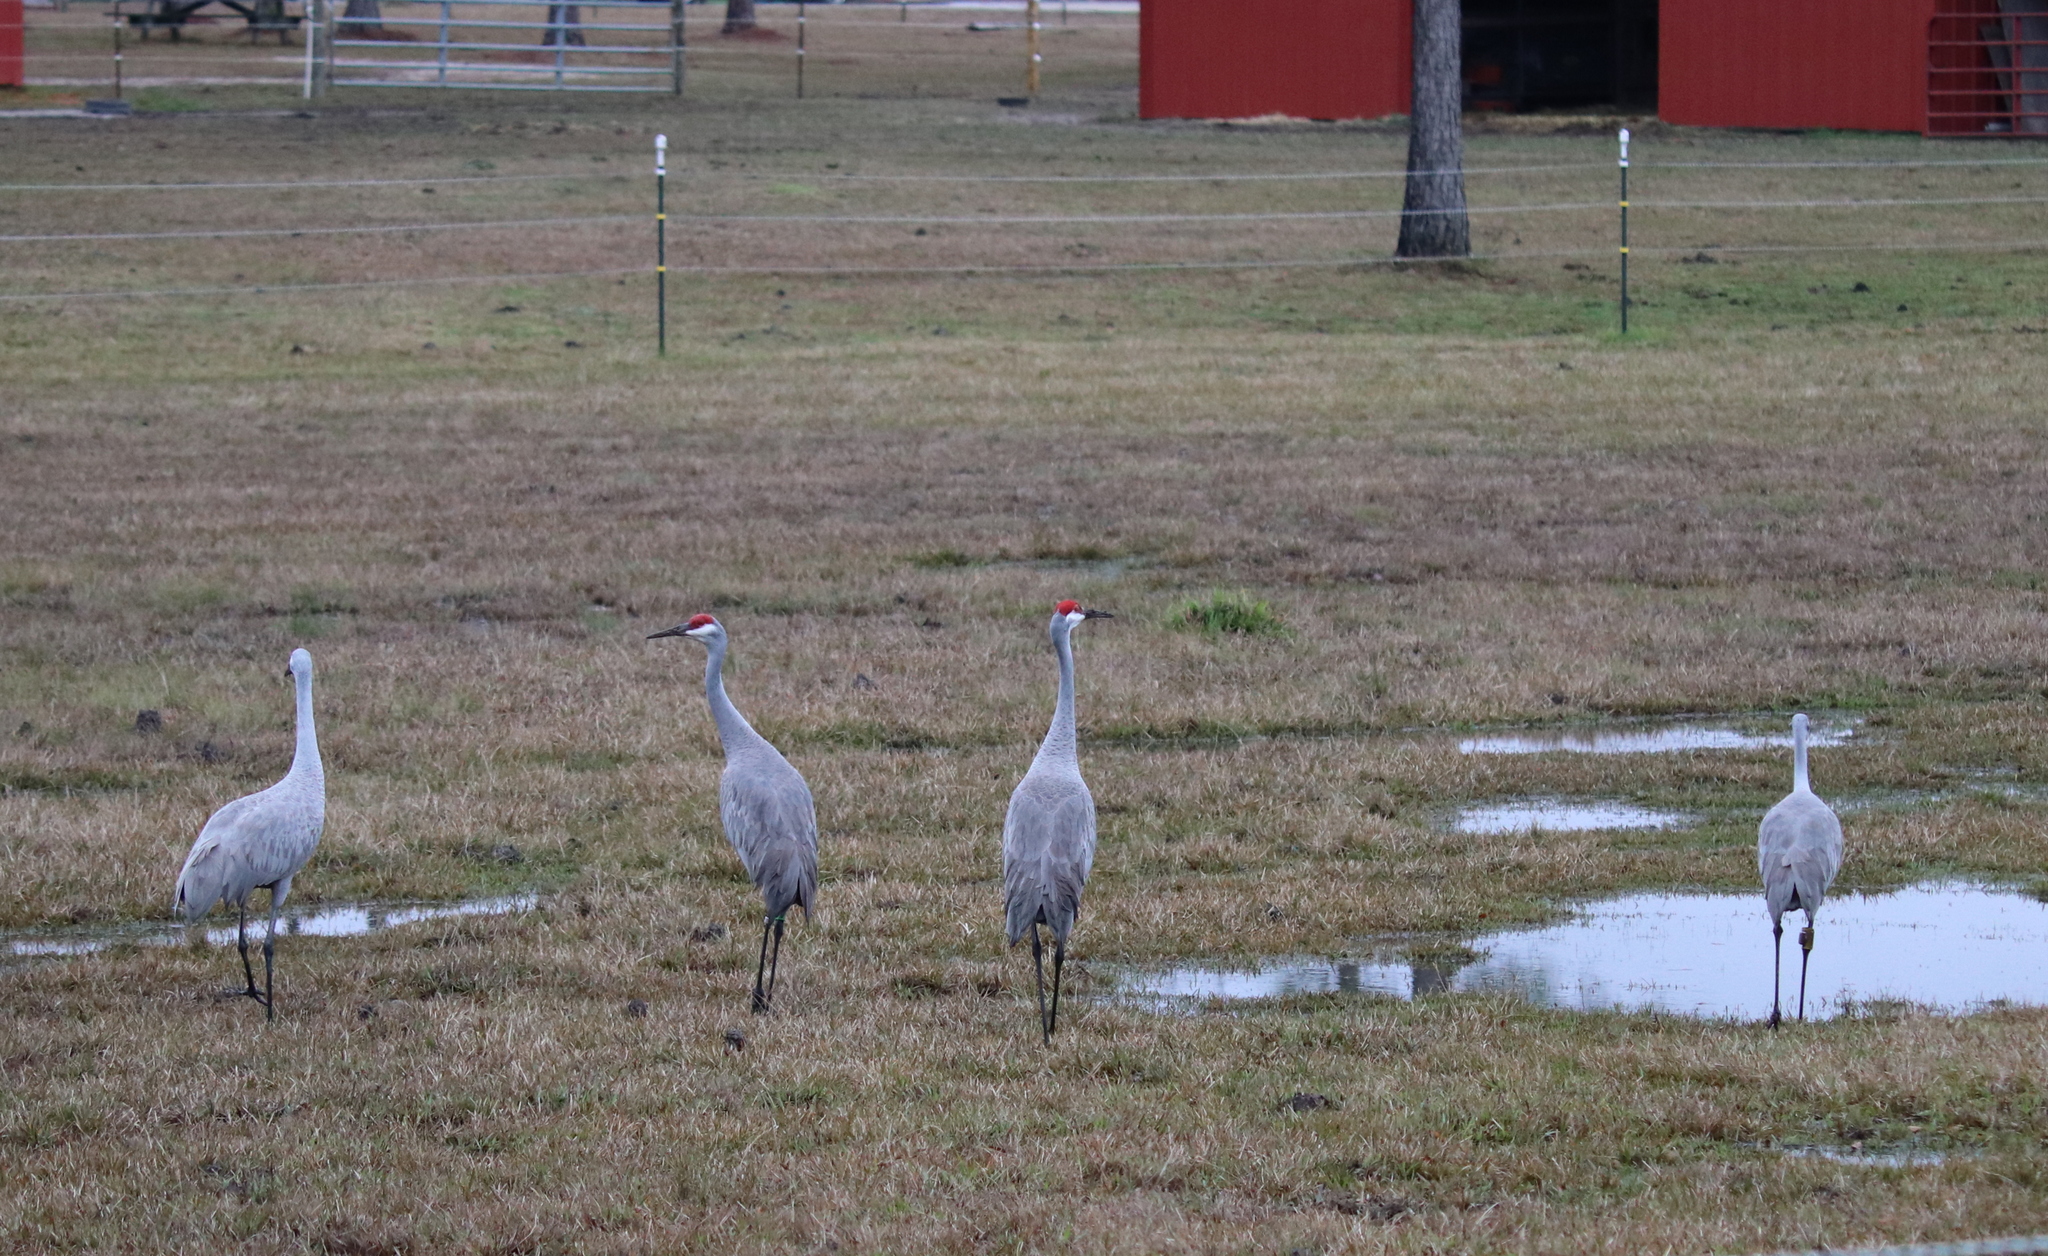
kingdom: Animalia
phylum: Chordata
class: Aves
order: Gruiformes
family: Gruidae
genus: Grus
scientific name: Grus canadensis
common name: Sandhill crane
